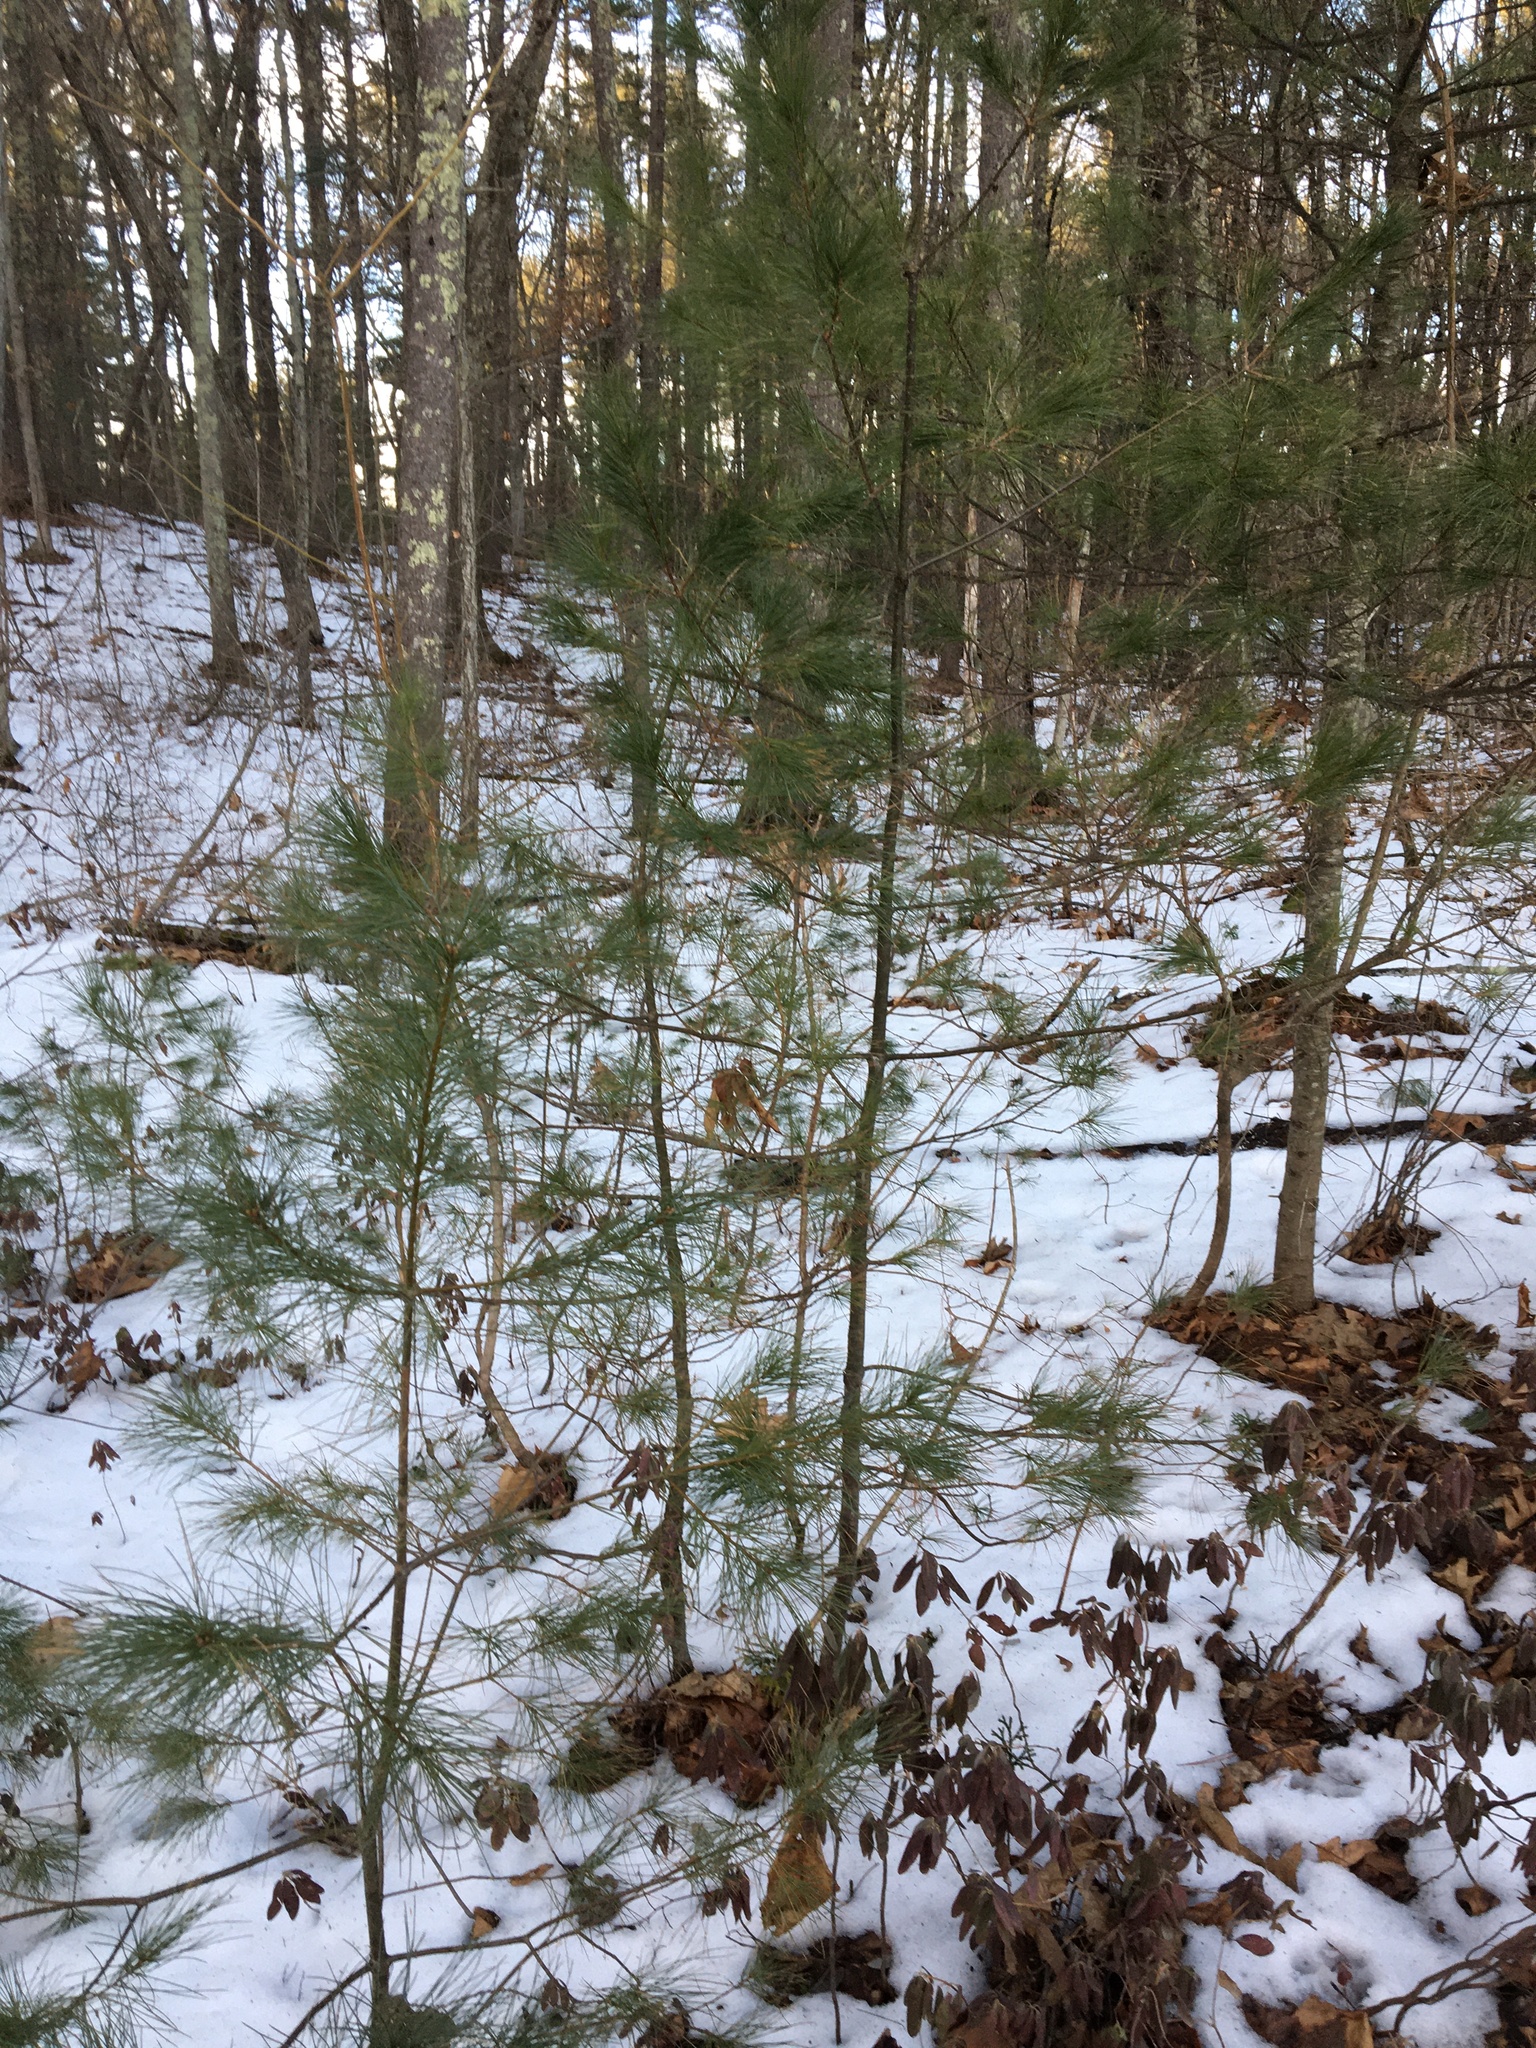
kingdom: Plantae
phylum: Tracheophyta
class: Pinopsida
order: Pinales
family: Pinaceae
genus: Pinus
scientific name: Pinus strobus
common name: Weymouth pine
